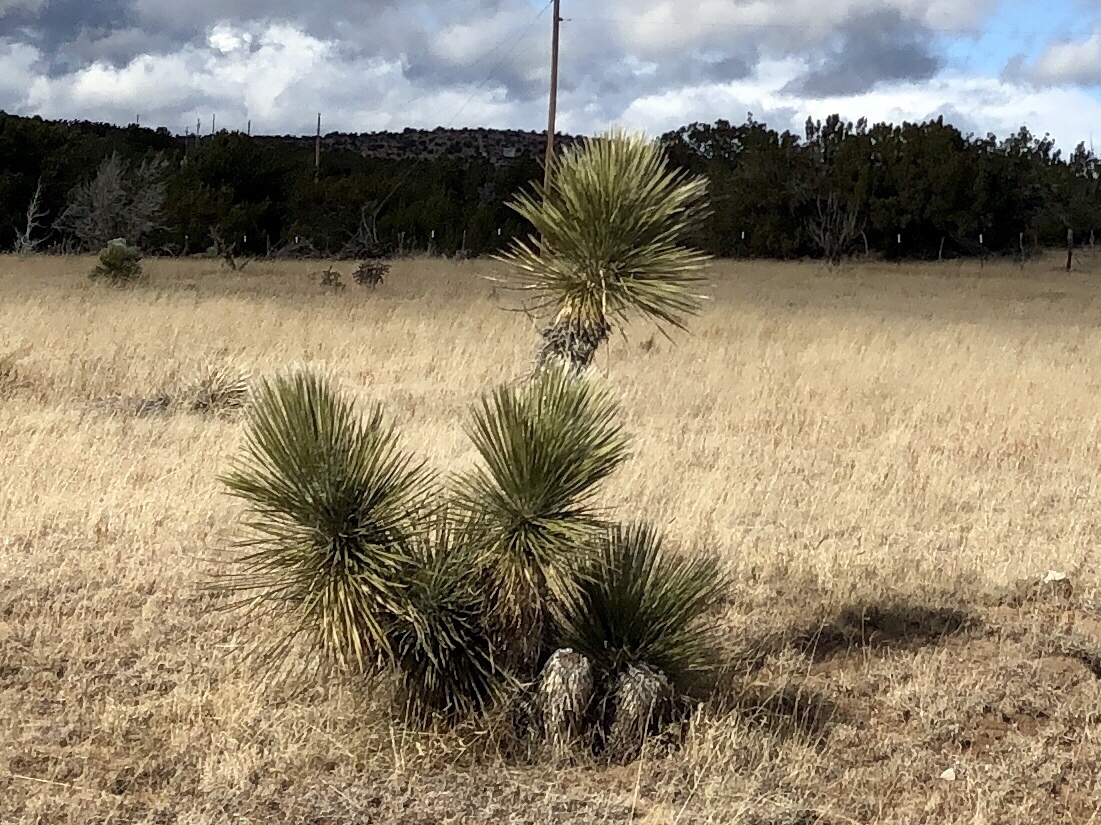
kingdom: Plantae
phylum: Tracheophyta
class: Liliopsida
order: Asparagales
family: Asparagaceae
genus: Yucca
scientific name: Yucca elata
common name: Palmella
